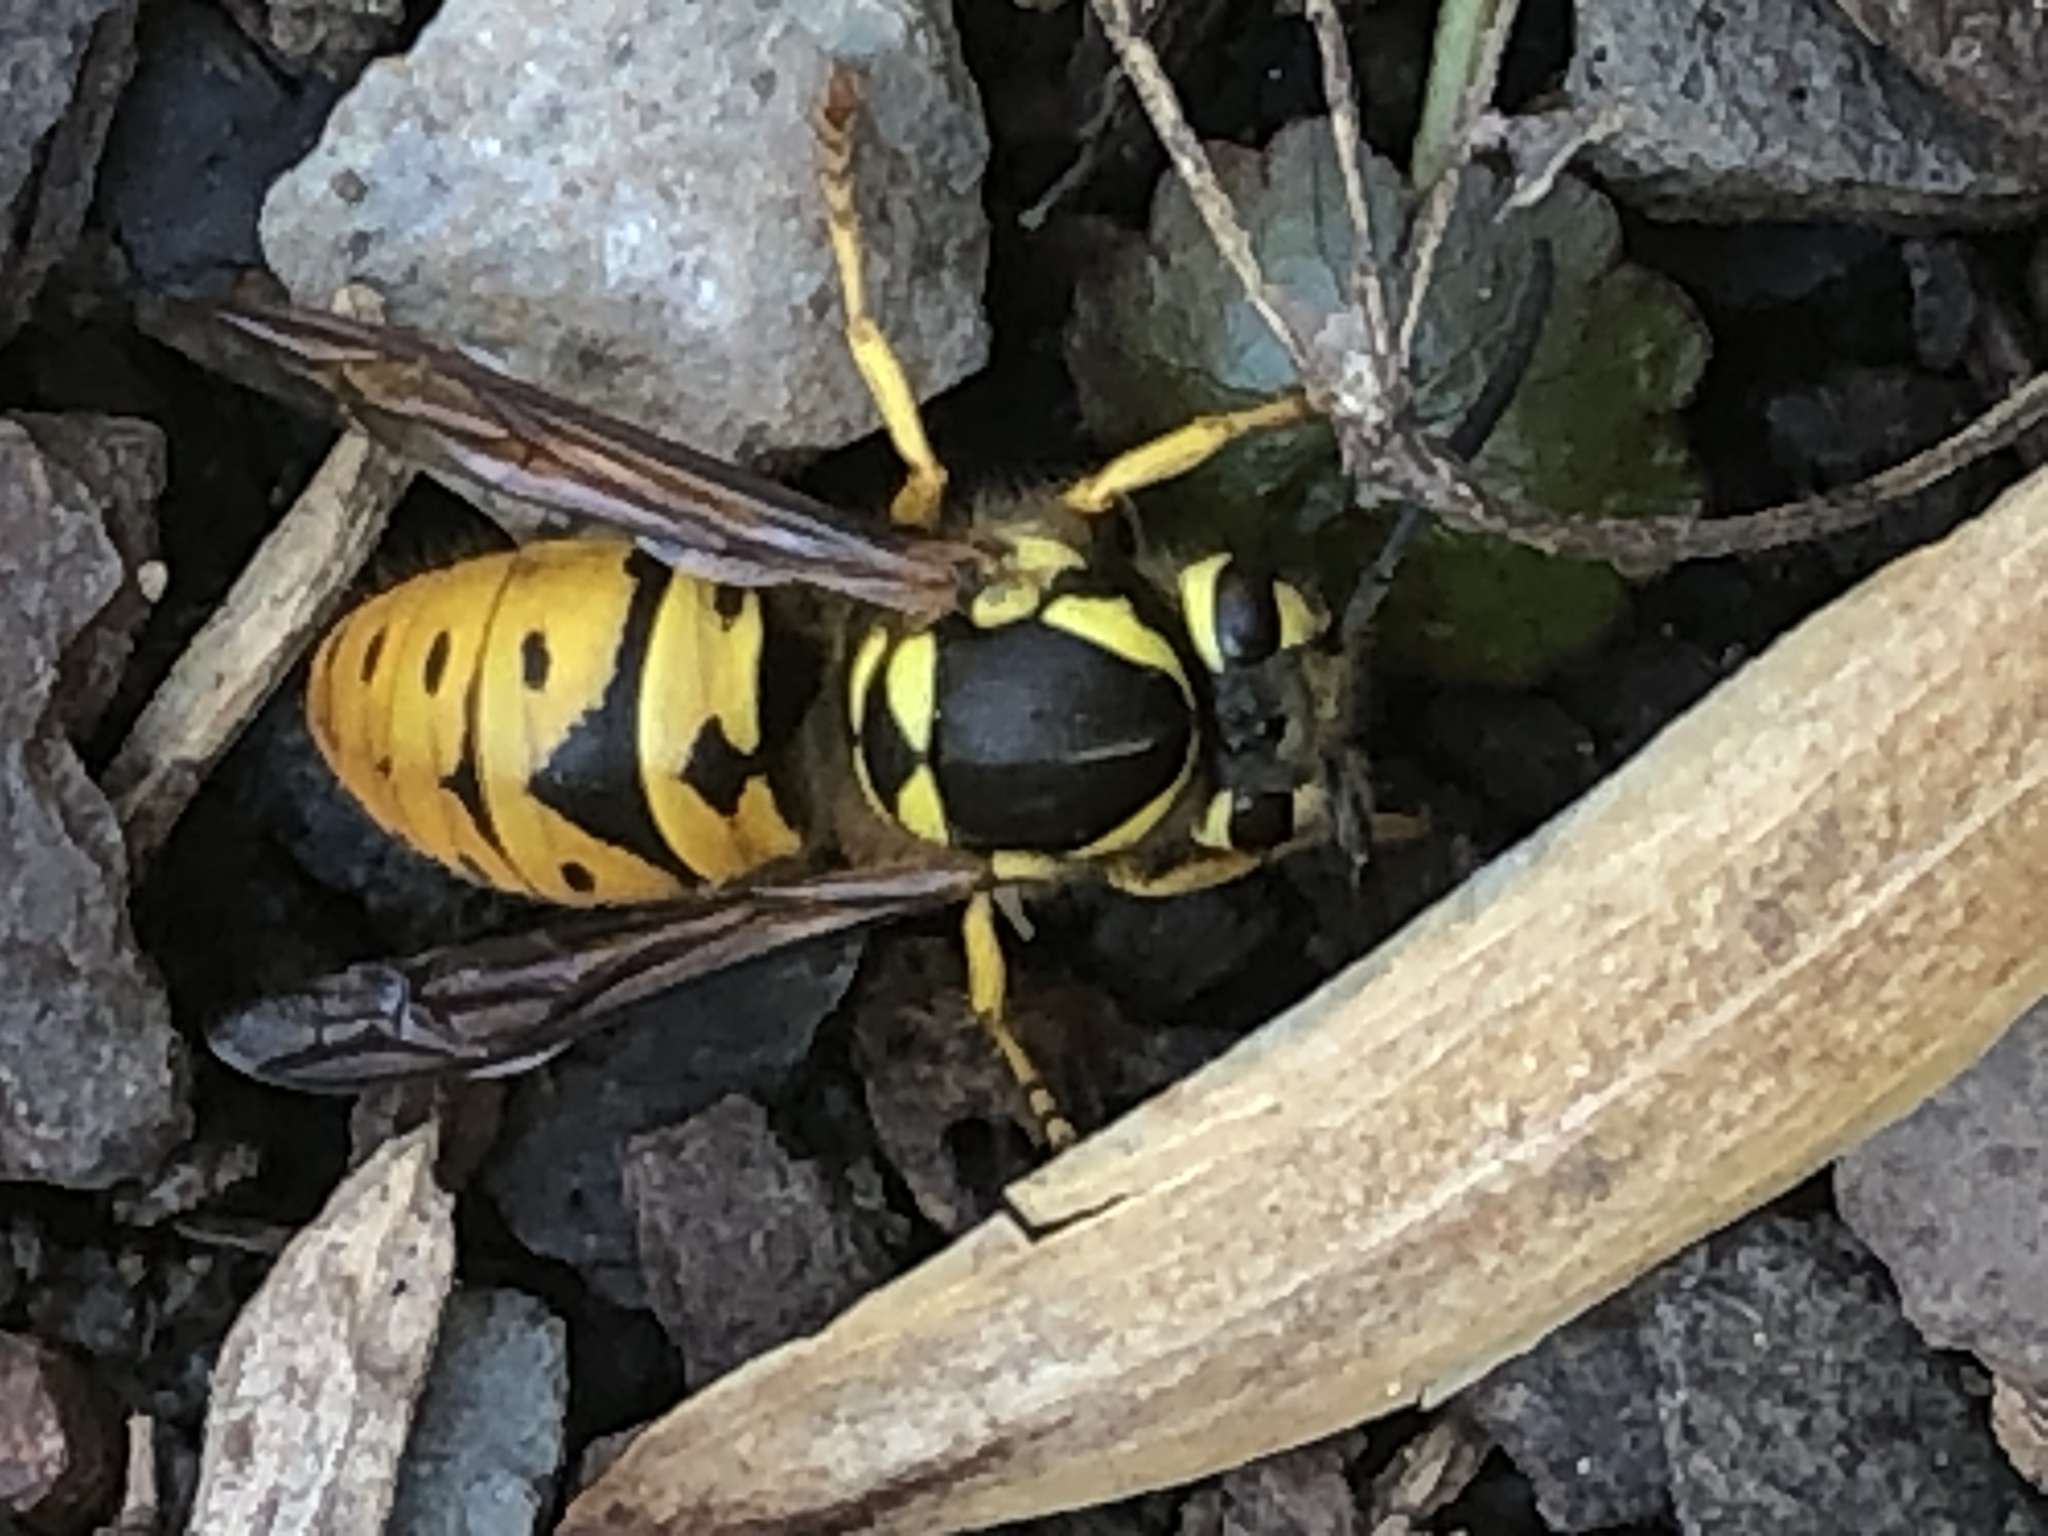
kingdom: Animalia
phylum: Arthropoda
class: Insecta
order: Hymenoptera
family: Vespidae
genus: Vespula
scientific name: Vespula maculifrons
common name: Eastern yellowjacket
